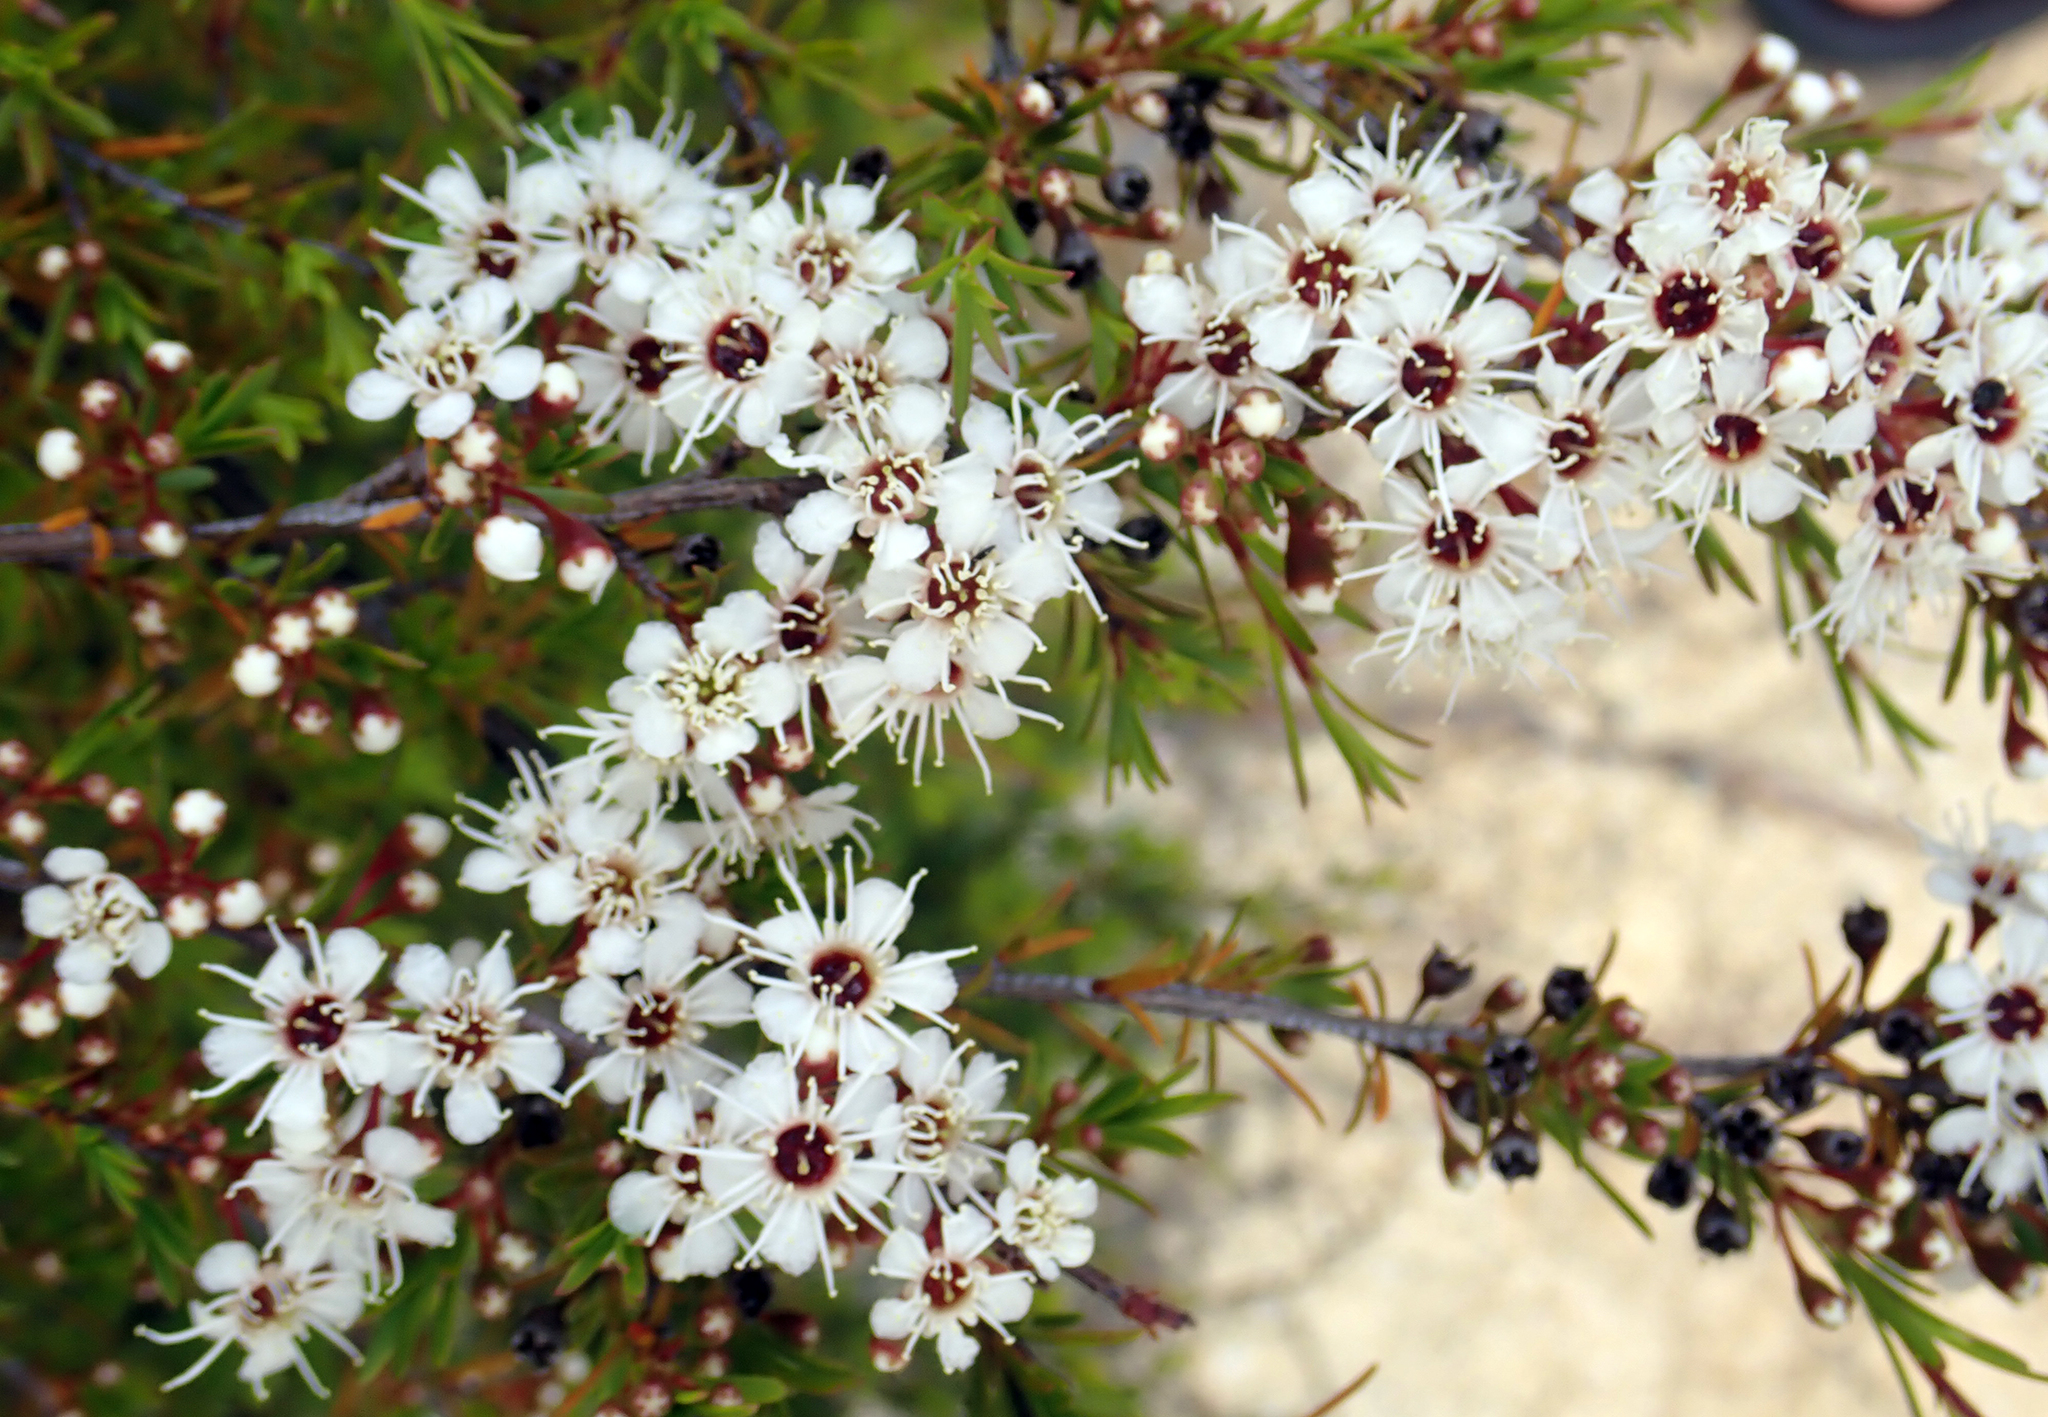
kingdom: Plantae
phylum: Tracheophyta
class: Magnoliopsida
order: Myrtales
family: Myrtaceae
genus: Kunzea
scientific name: Kunzea ericoides
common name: Burgan
